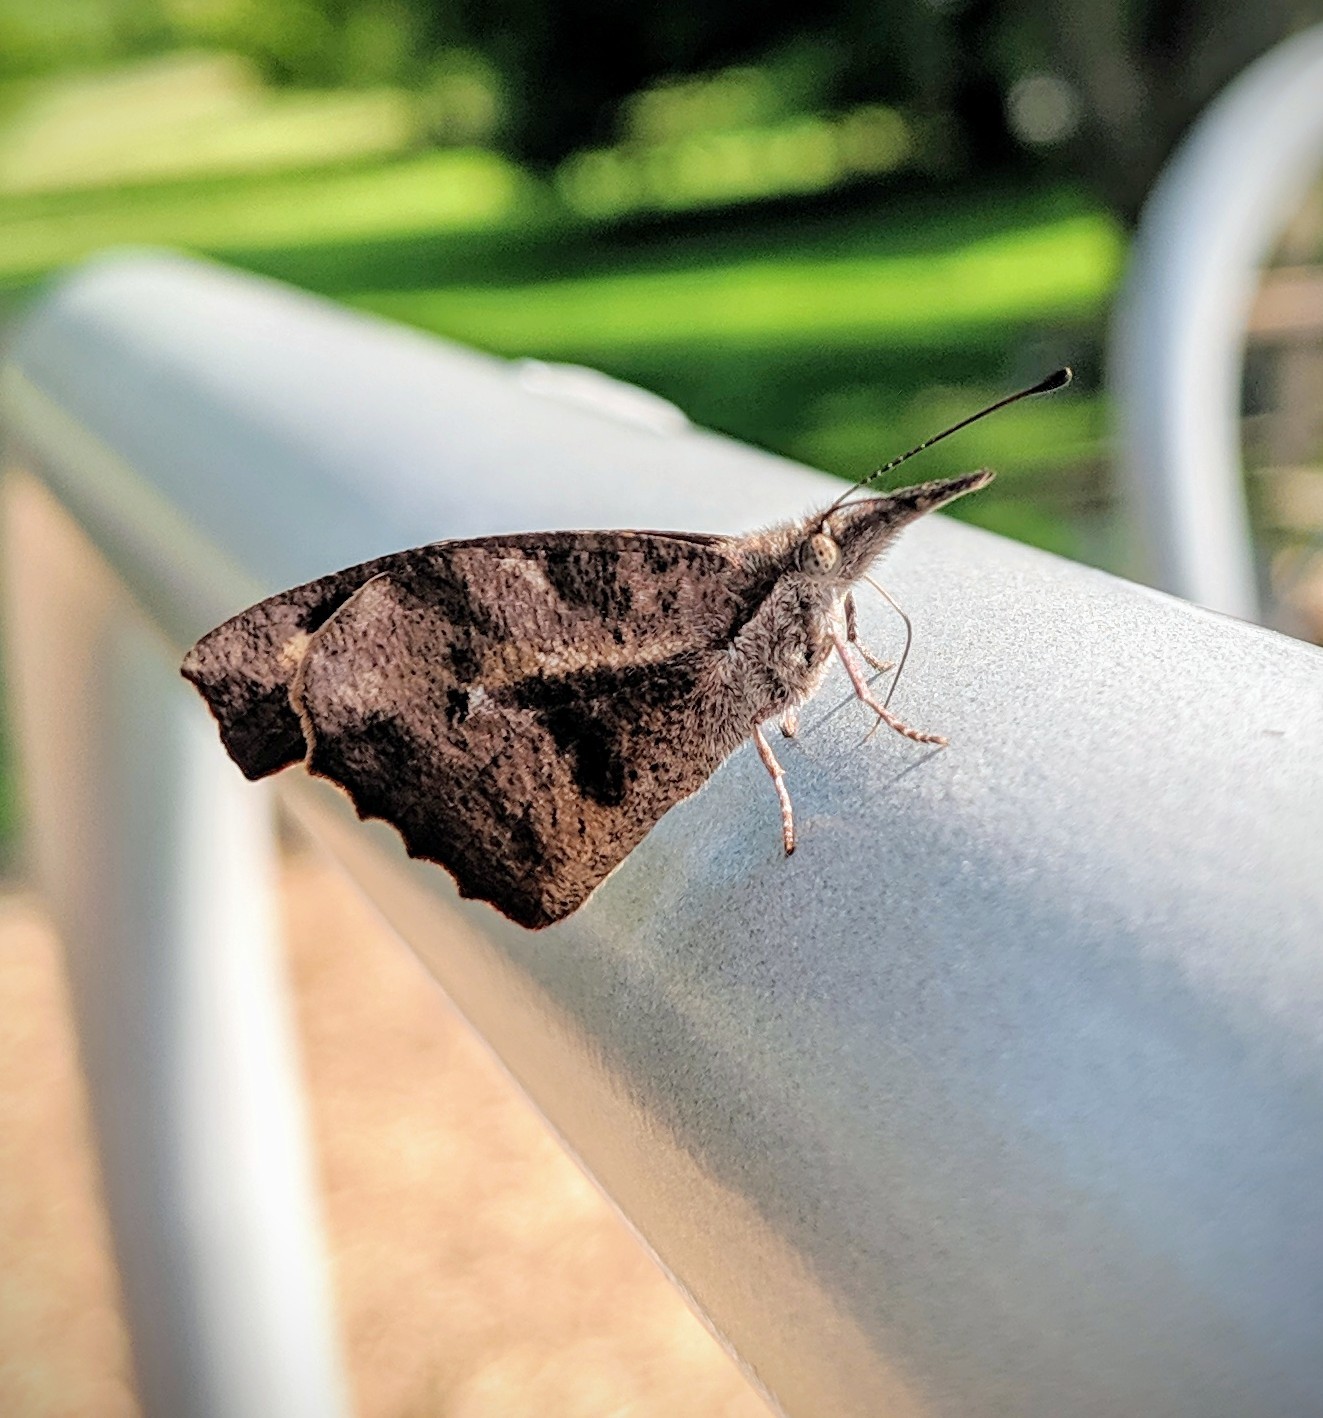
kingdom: Animalia
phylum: Arthropoda
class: Insecta
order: Lepidoptera
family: Nymphalidae
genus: Libytheana
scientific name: Libytheana carinenta
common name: American snout
